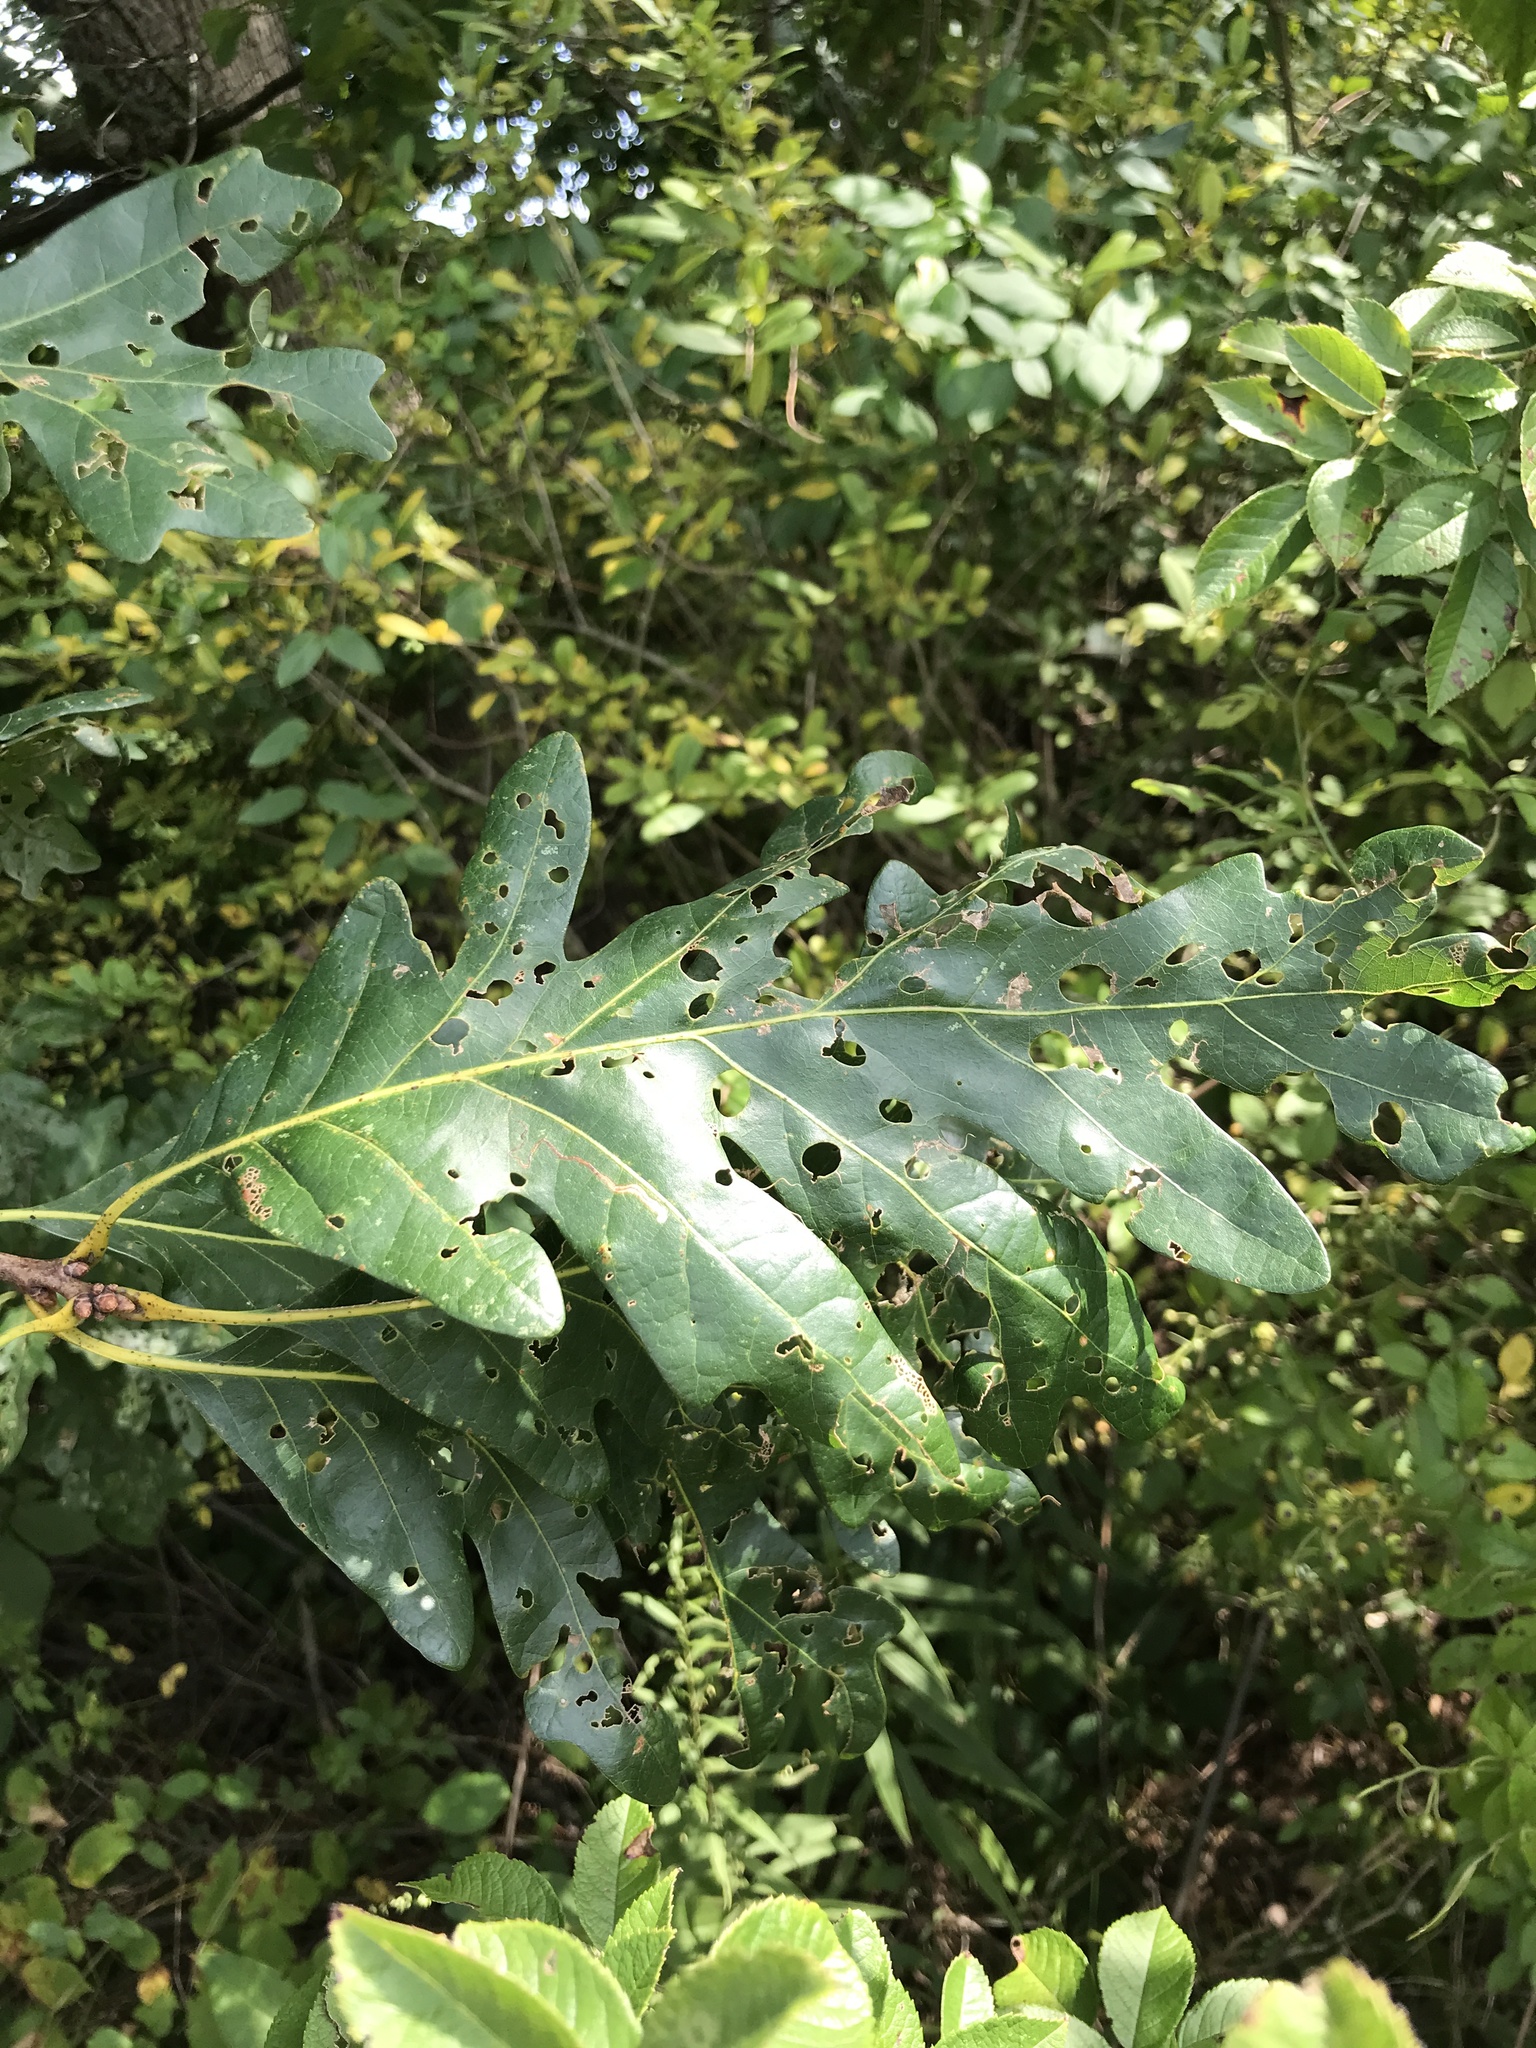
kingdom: Plantae
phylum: Tracheophyta
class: Magnoliopsida
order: Fagales
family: Fagaceae
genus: Quercus
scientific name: Quercus alba
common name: White oak
